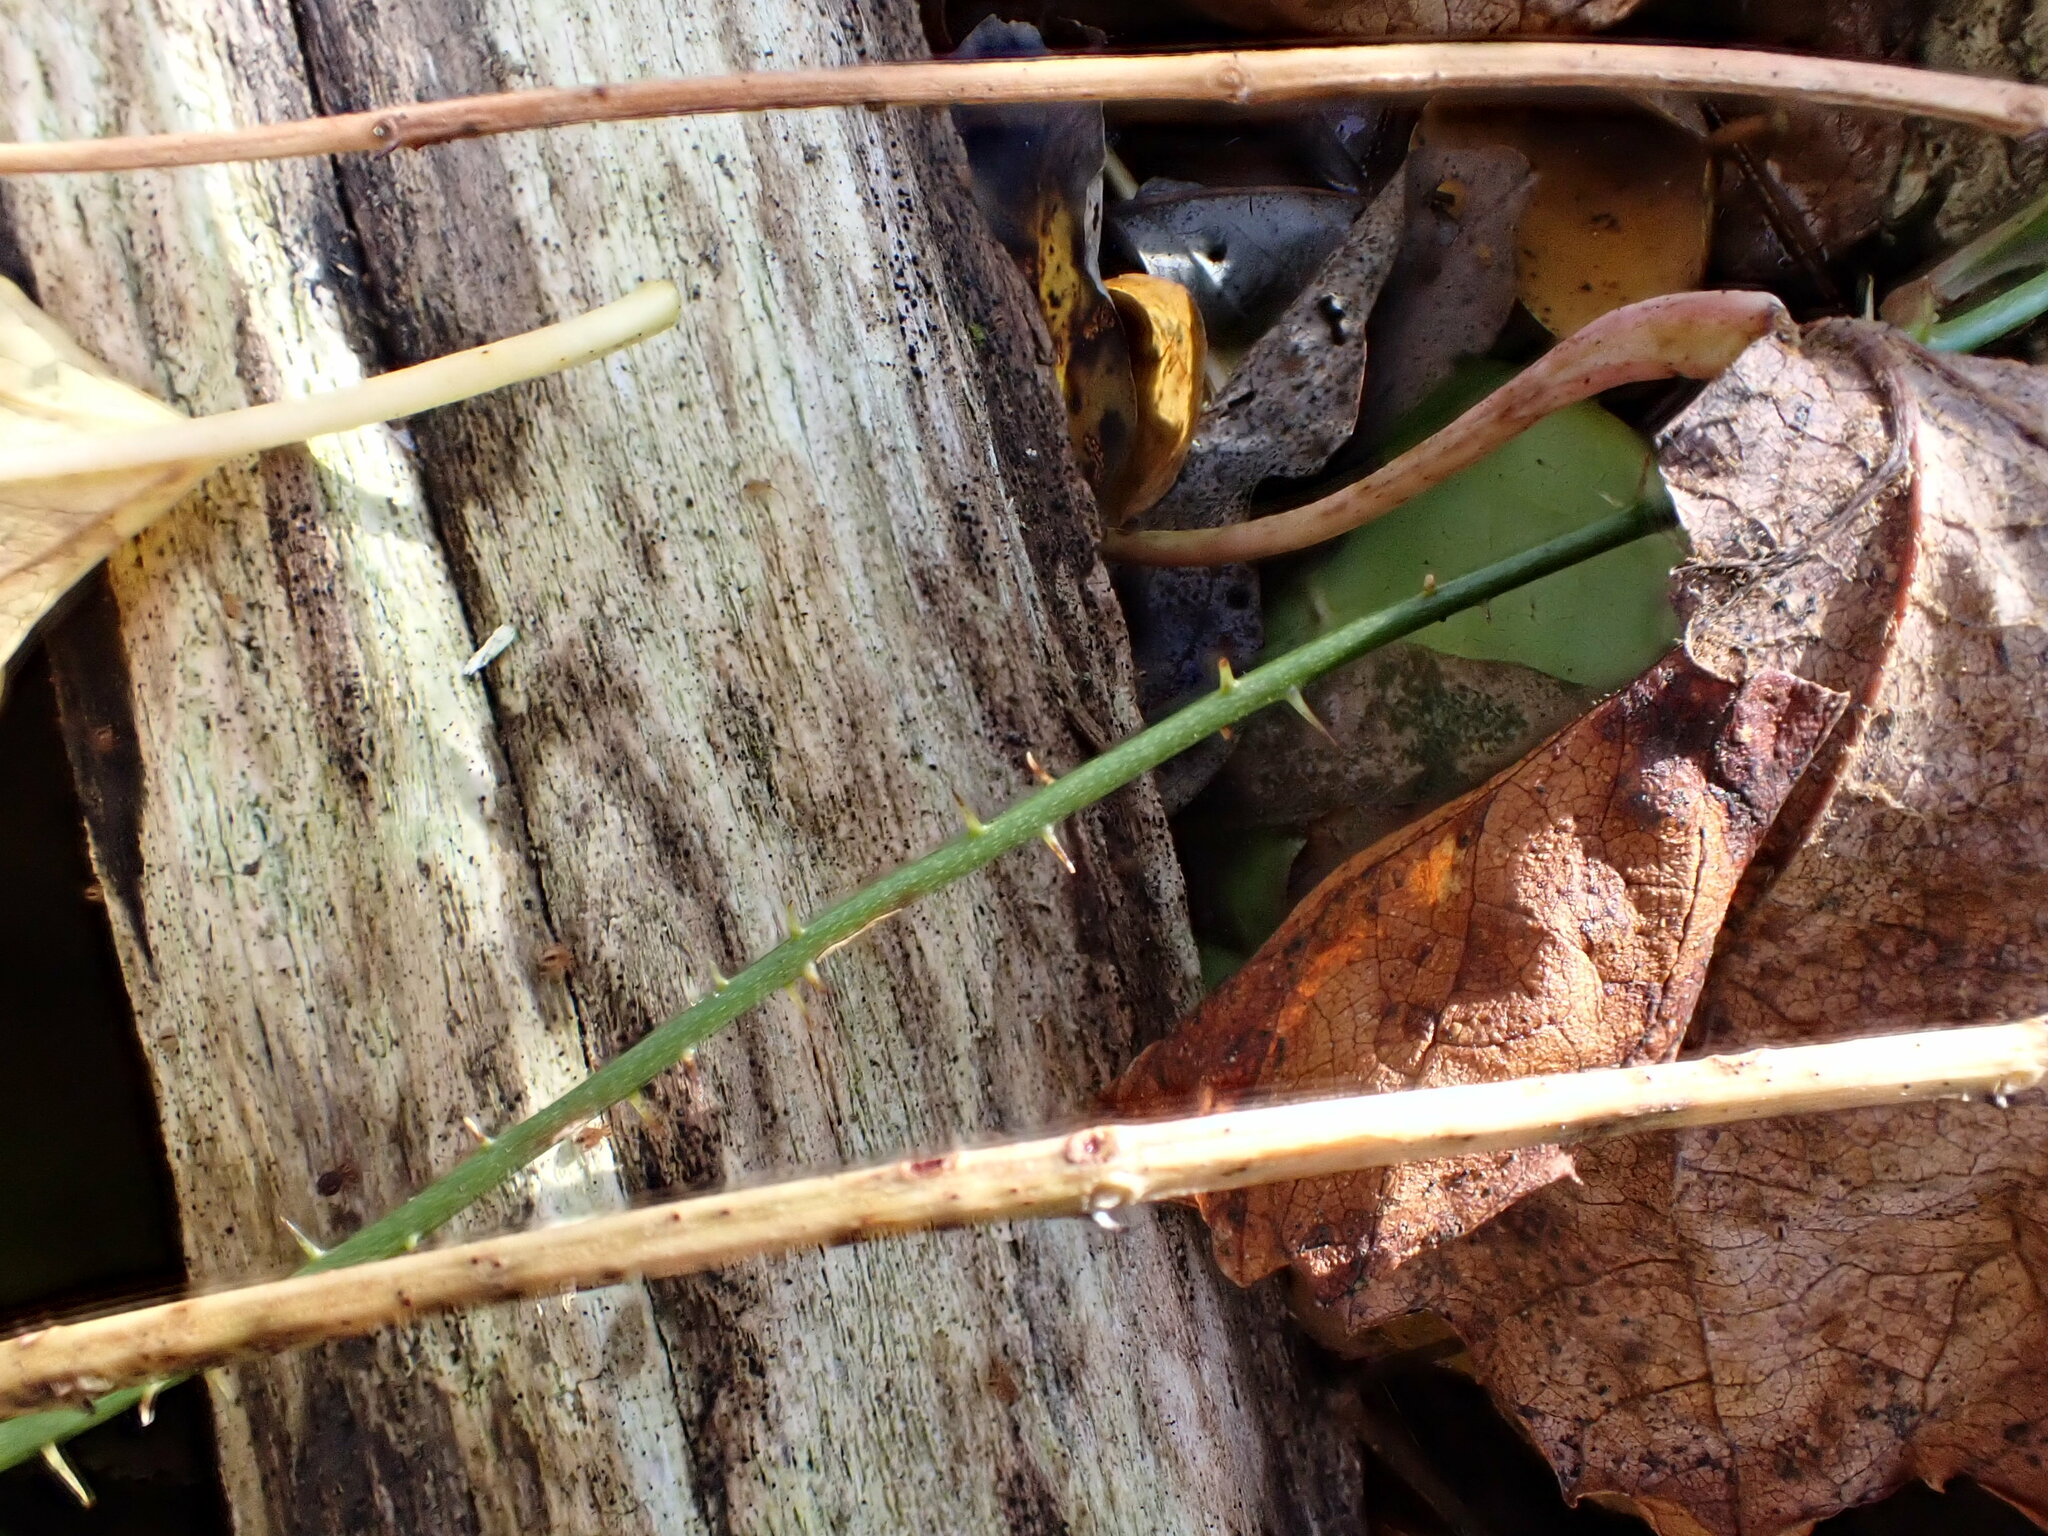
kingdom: Plantae
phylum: Tracheophyta
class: Liliopsida
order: Liliales
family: Smilacaceae
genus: Smilax
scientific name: Smilax glauca
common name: Cat greenbrier
